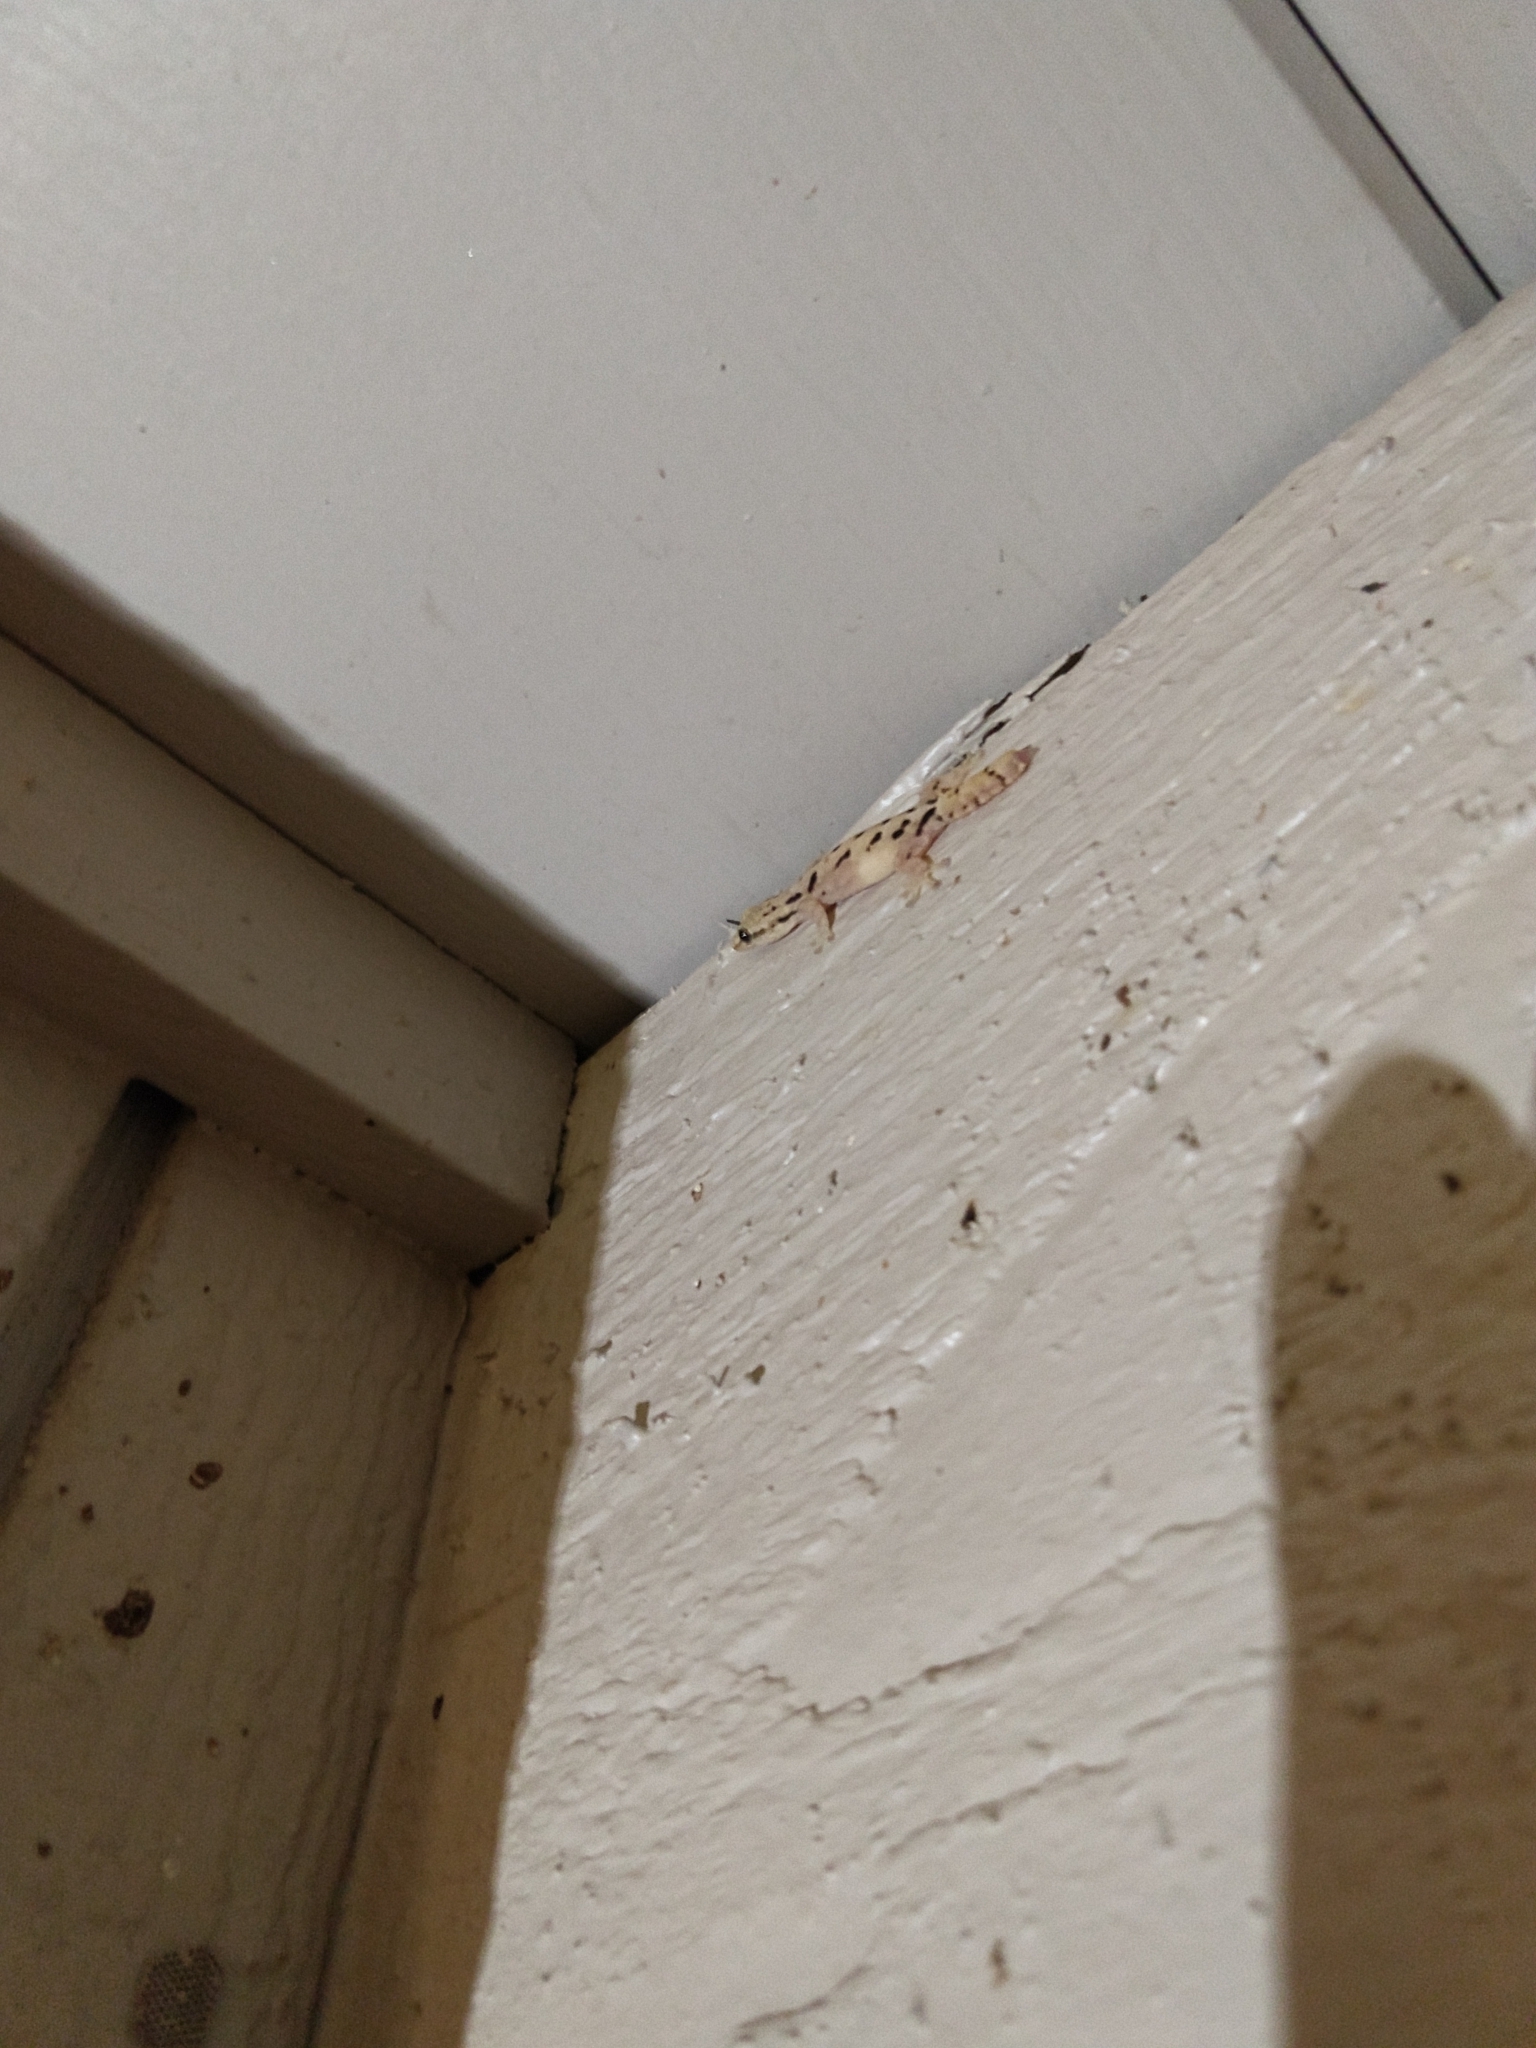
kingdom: Animalia
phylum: Chordata
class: Squamata
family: Gekkonidae
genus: Lepidodactylus
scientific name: Lepidodactylus lugubris
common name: Mourning gecko
